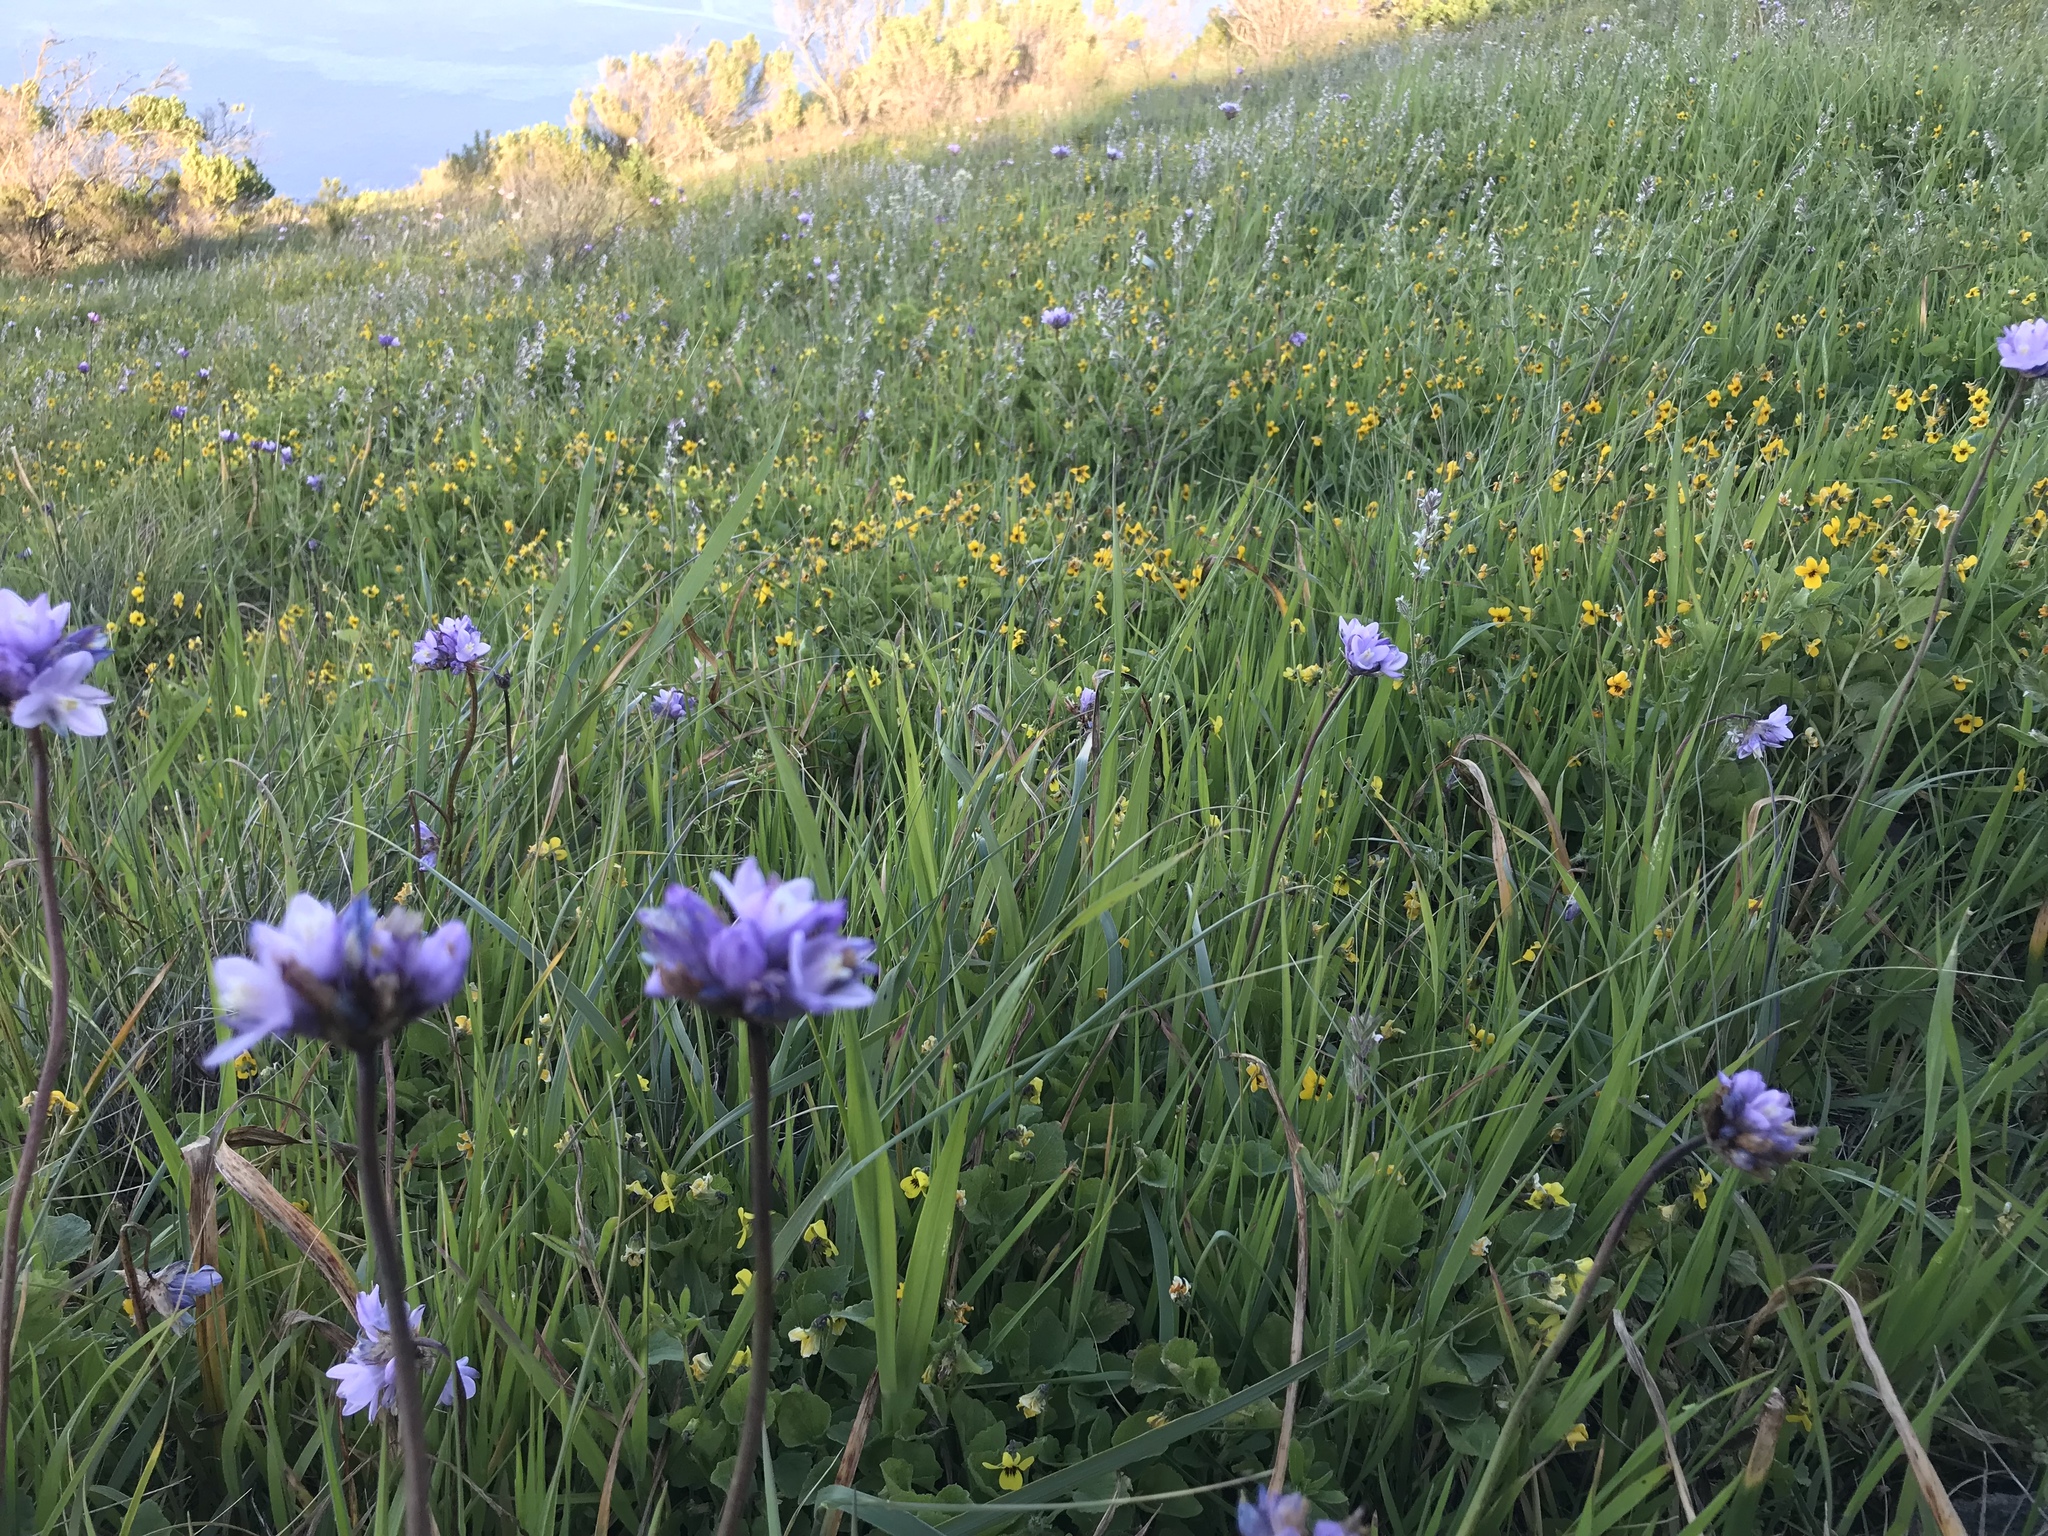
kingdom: Plantae
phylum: Tracheophyta
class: Liliopsida
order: Asparagales
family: Asparagaceae
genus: Dipterostemon
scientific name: Dipterostemon capitatus
